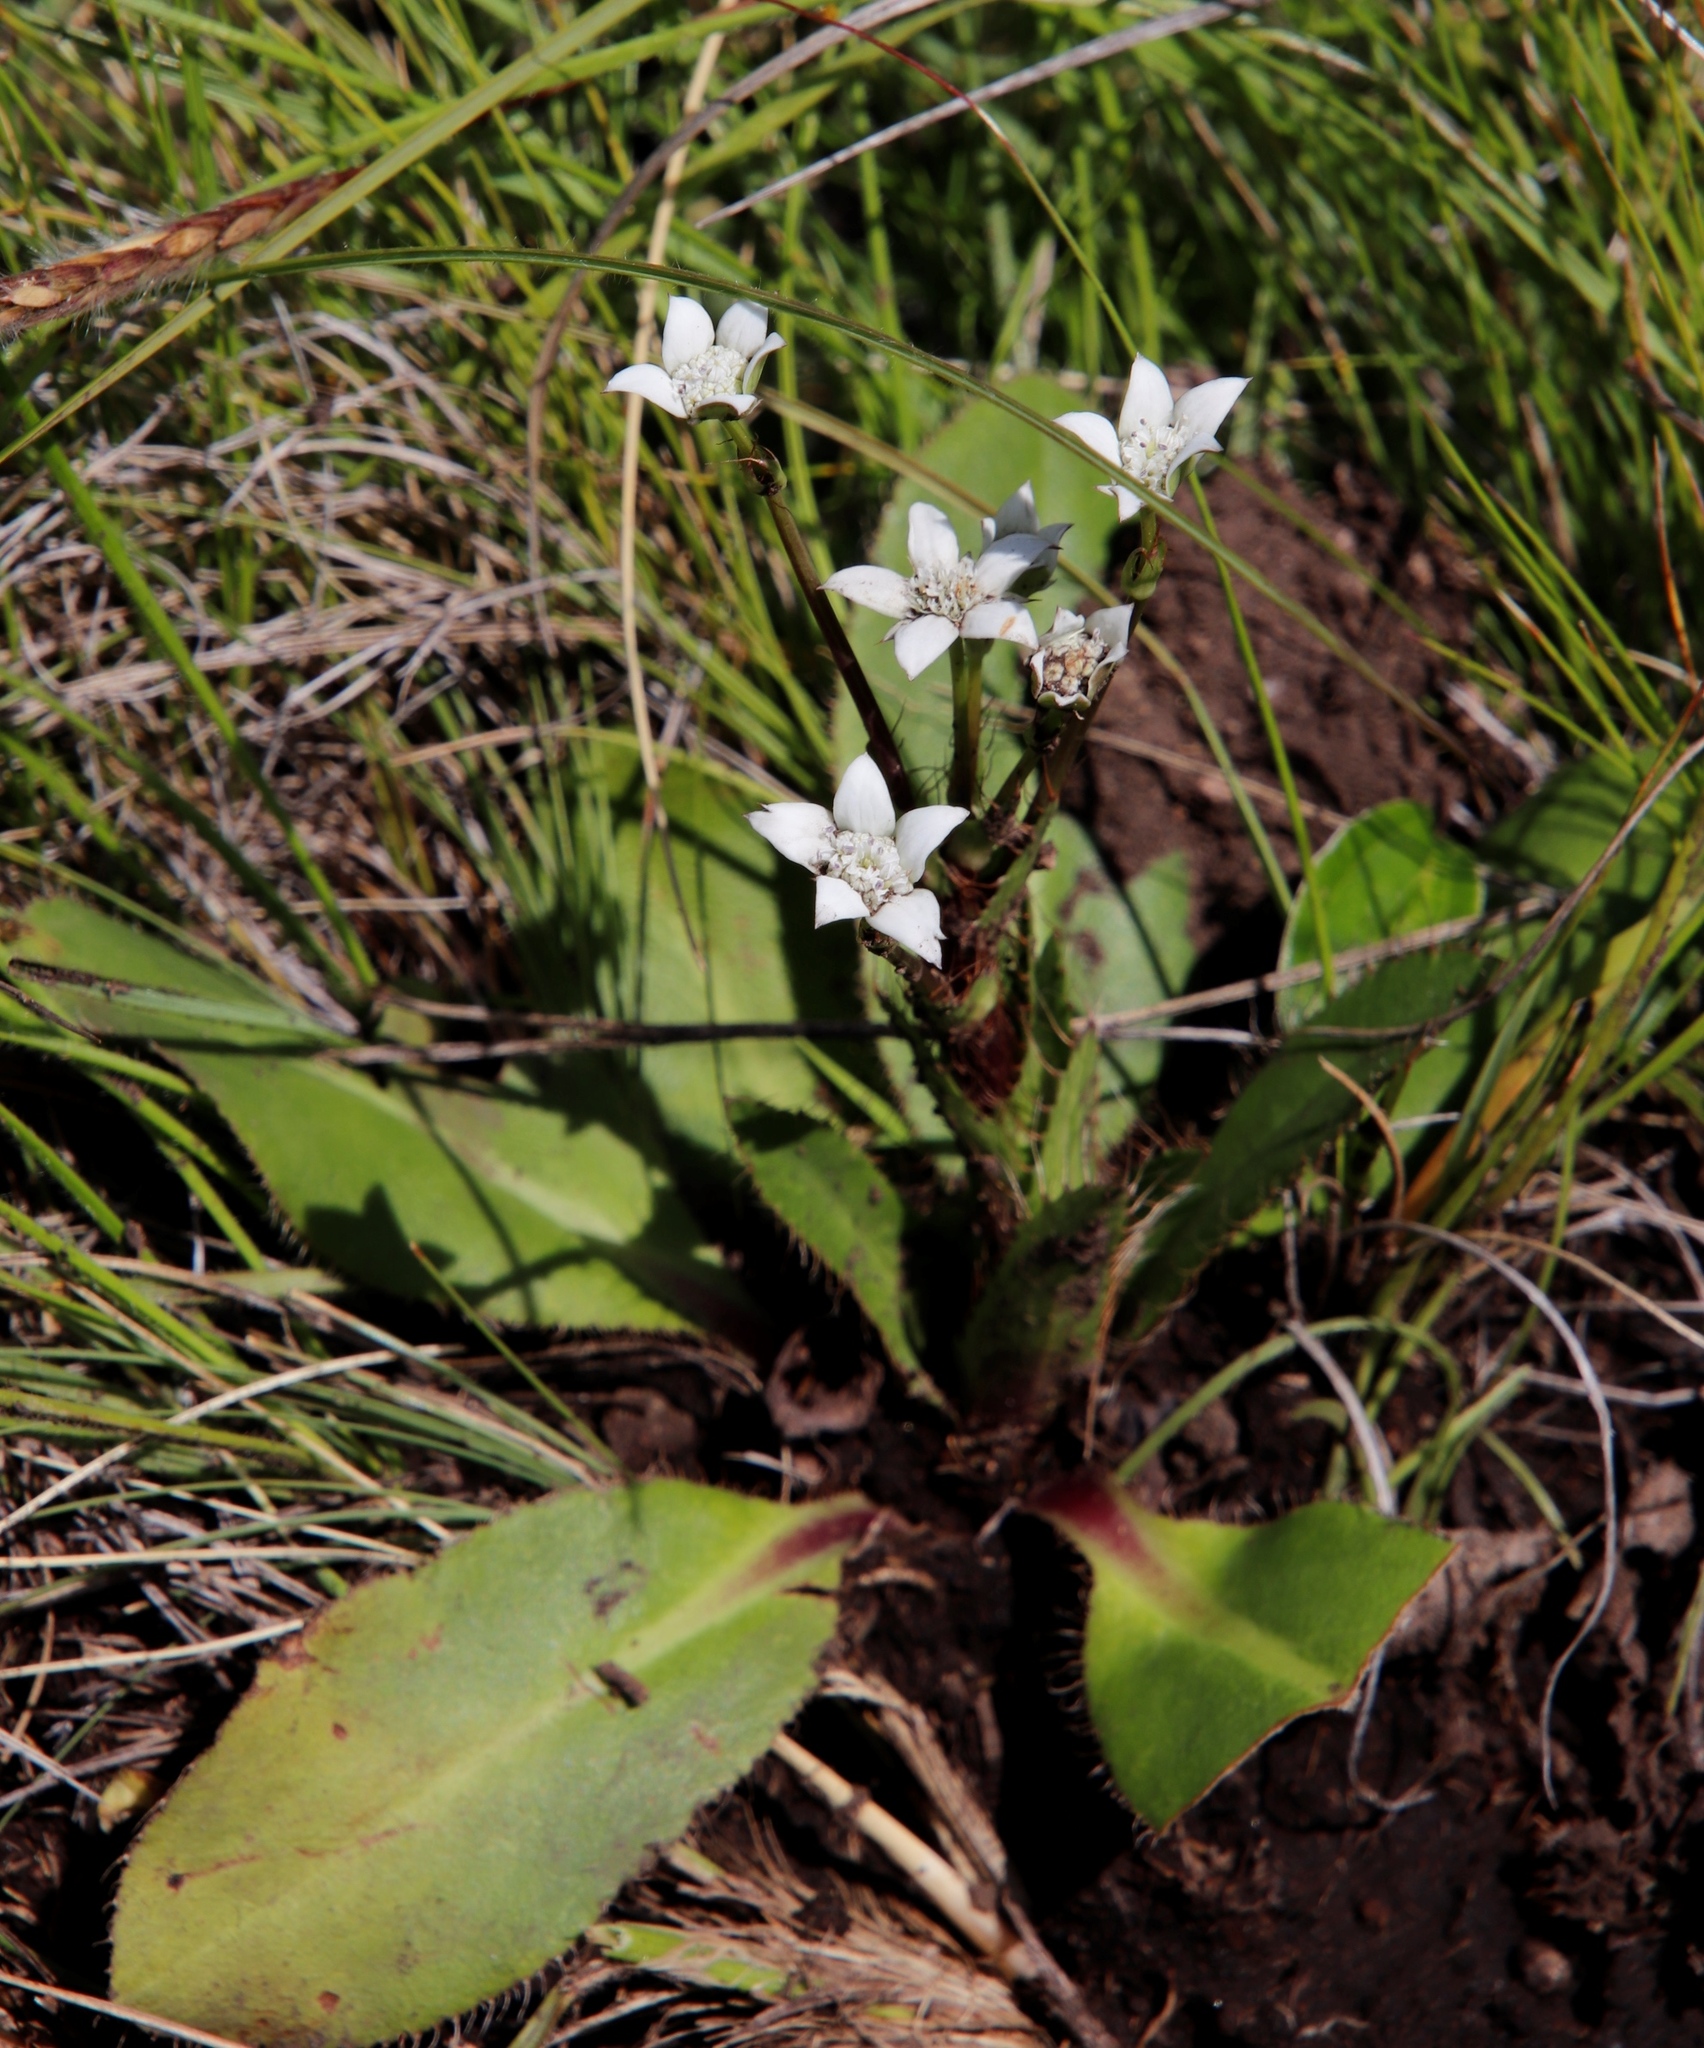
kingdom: Plantae
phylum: Tracheophyta
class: Magnoliopsida
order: Apiales
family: Apiaceae
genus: Alepidea
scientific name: Alepidea natalensis
